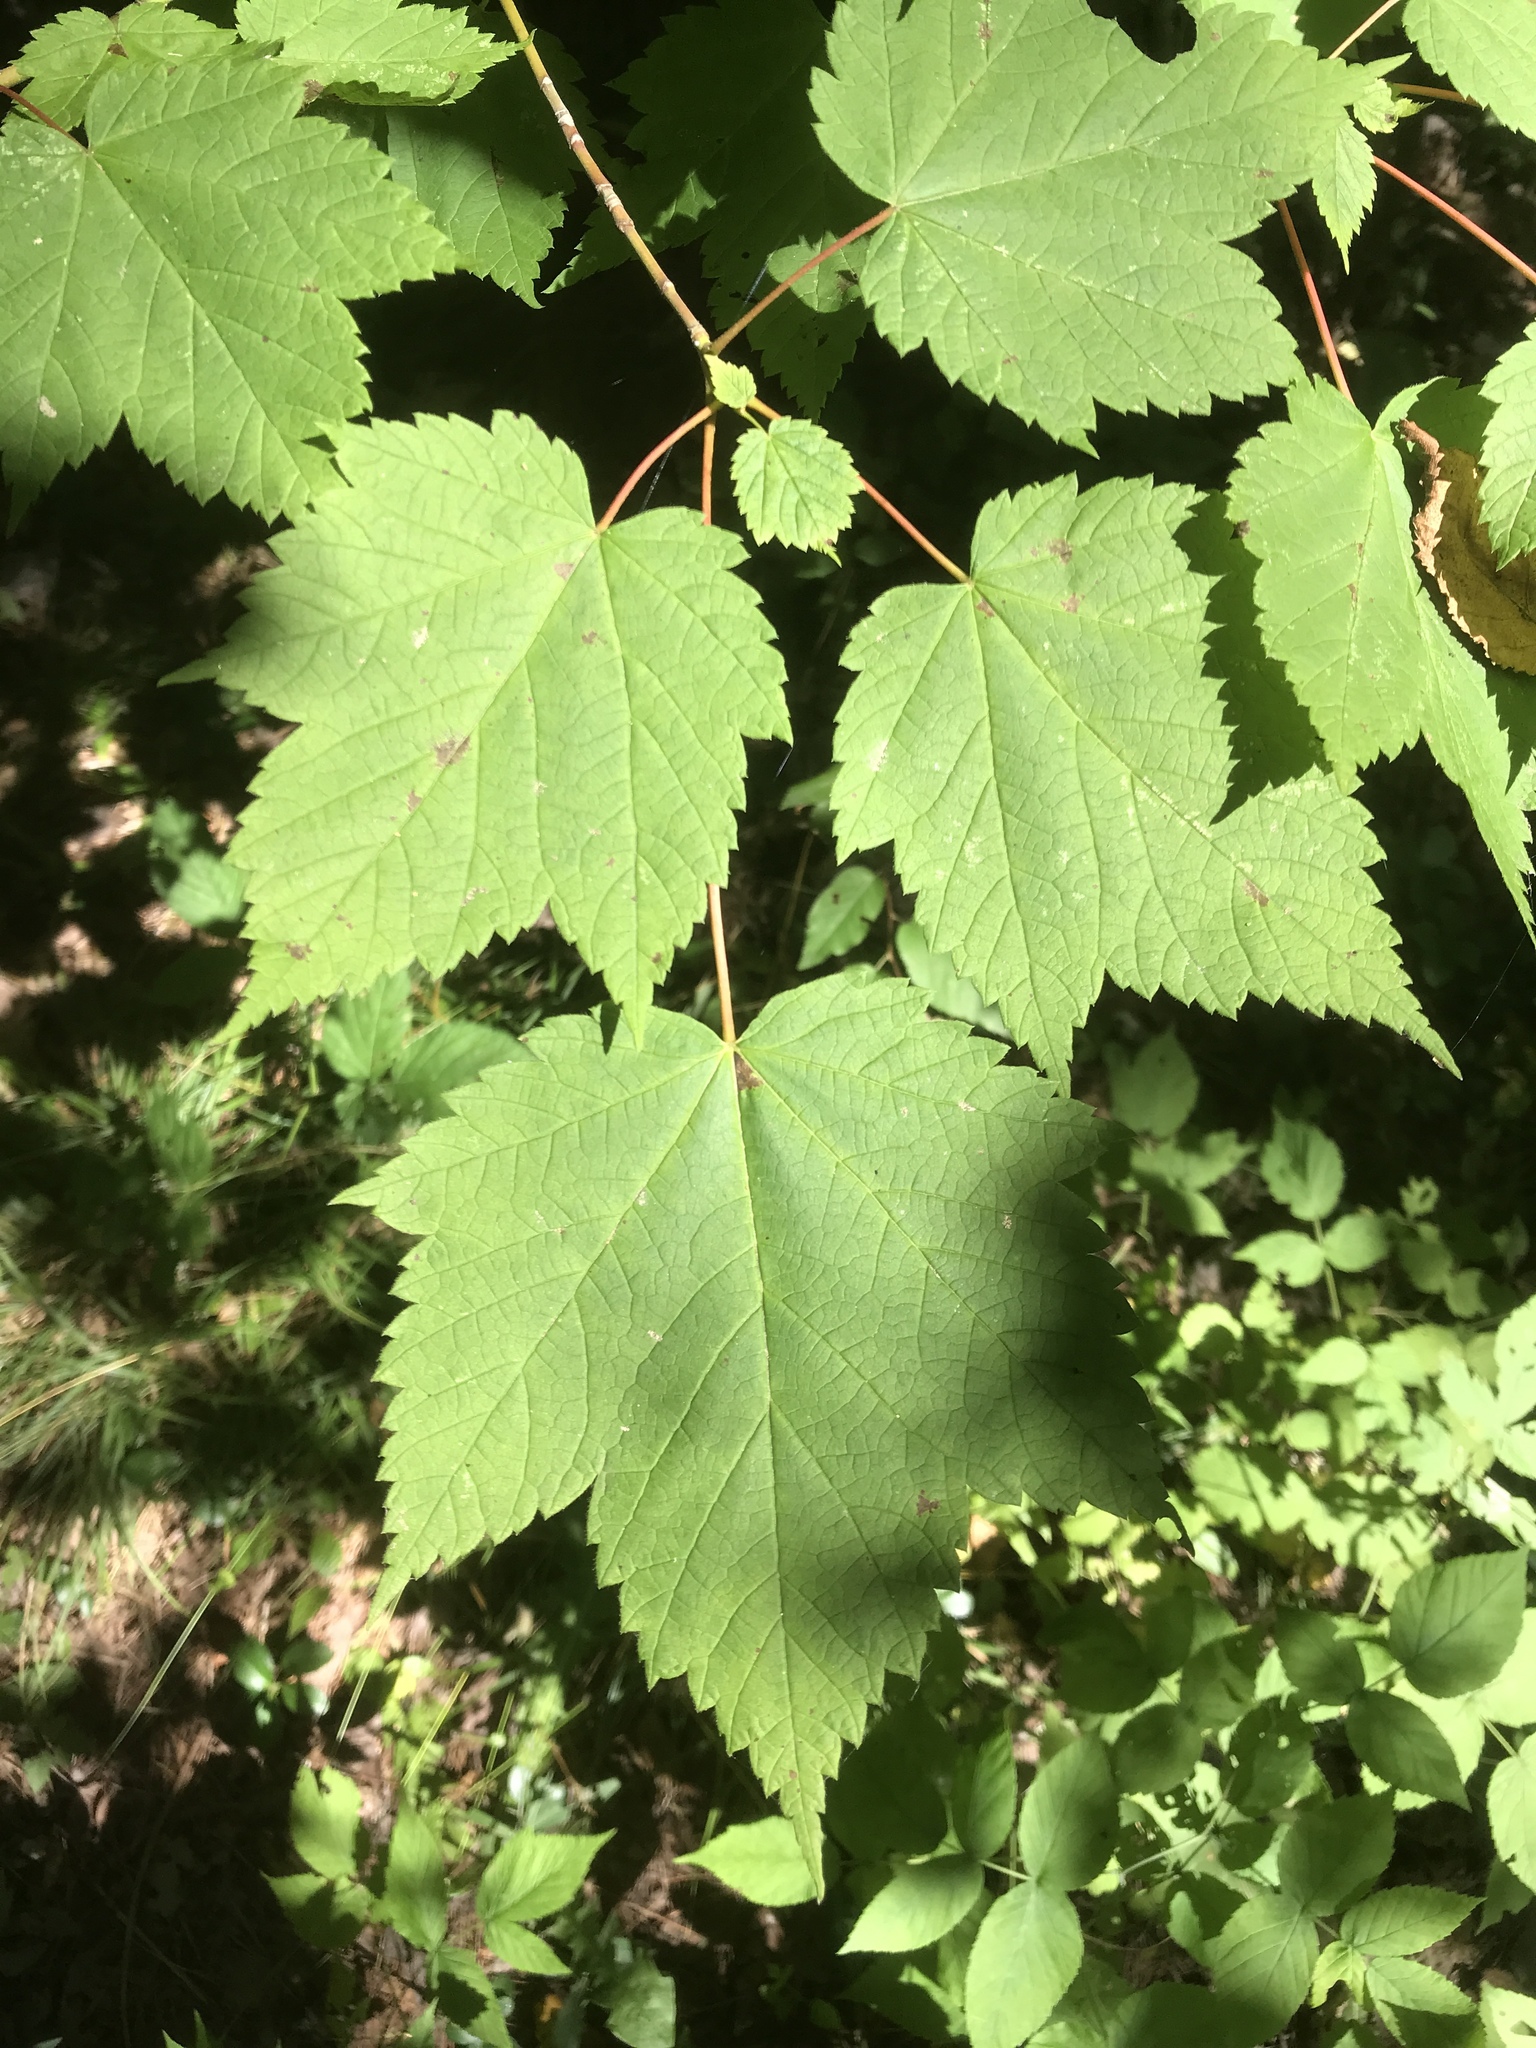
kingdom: Plantae
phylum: Tracheophyta
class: Magnoliopsida
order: Sapindales
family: Sapindaceae
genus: Acer
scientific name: Acer spicatum
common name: Mountain maple
